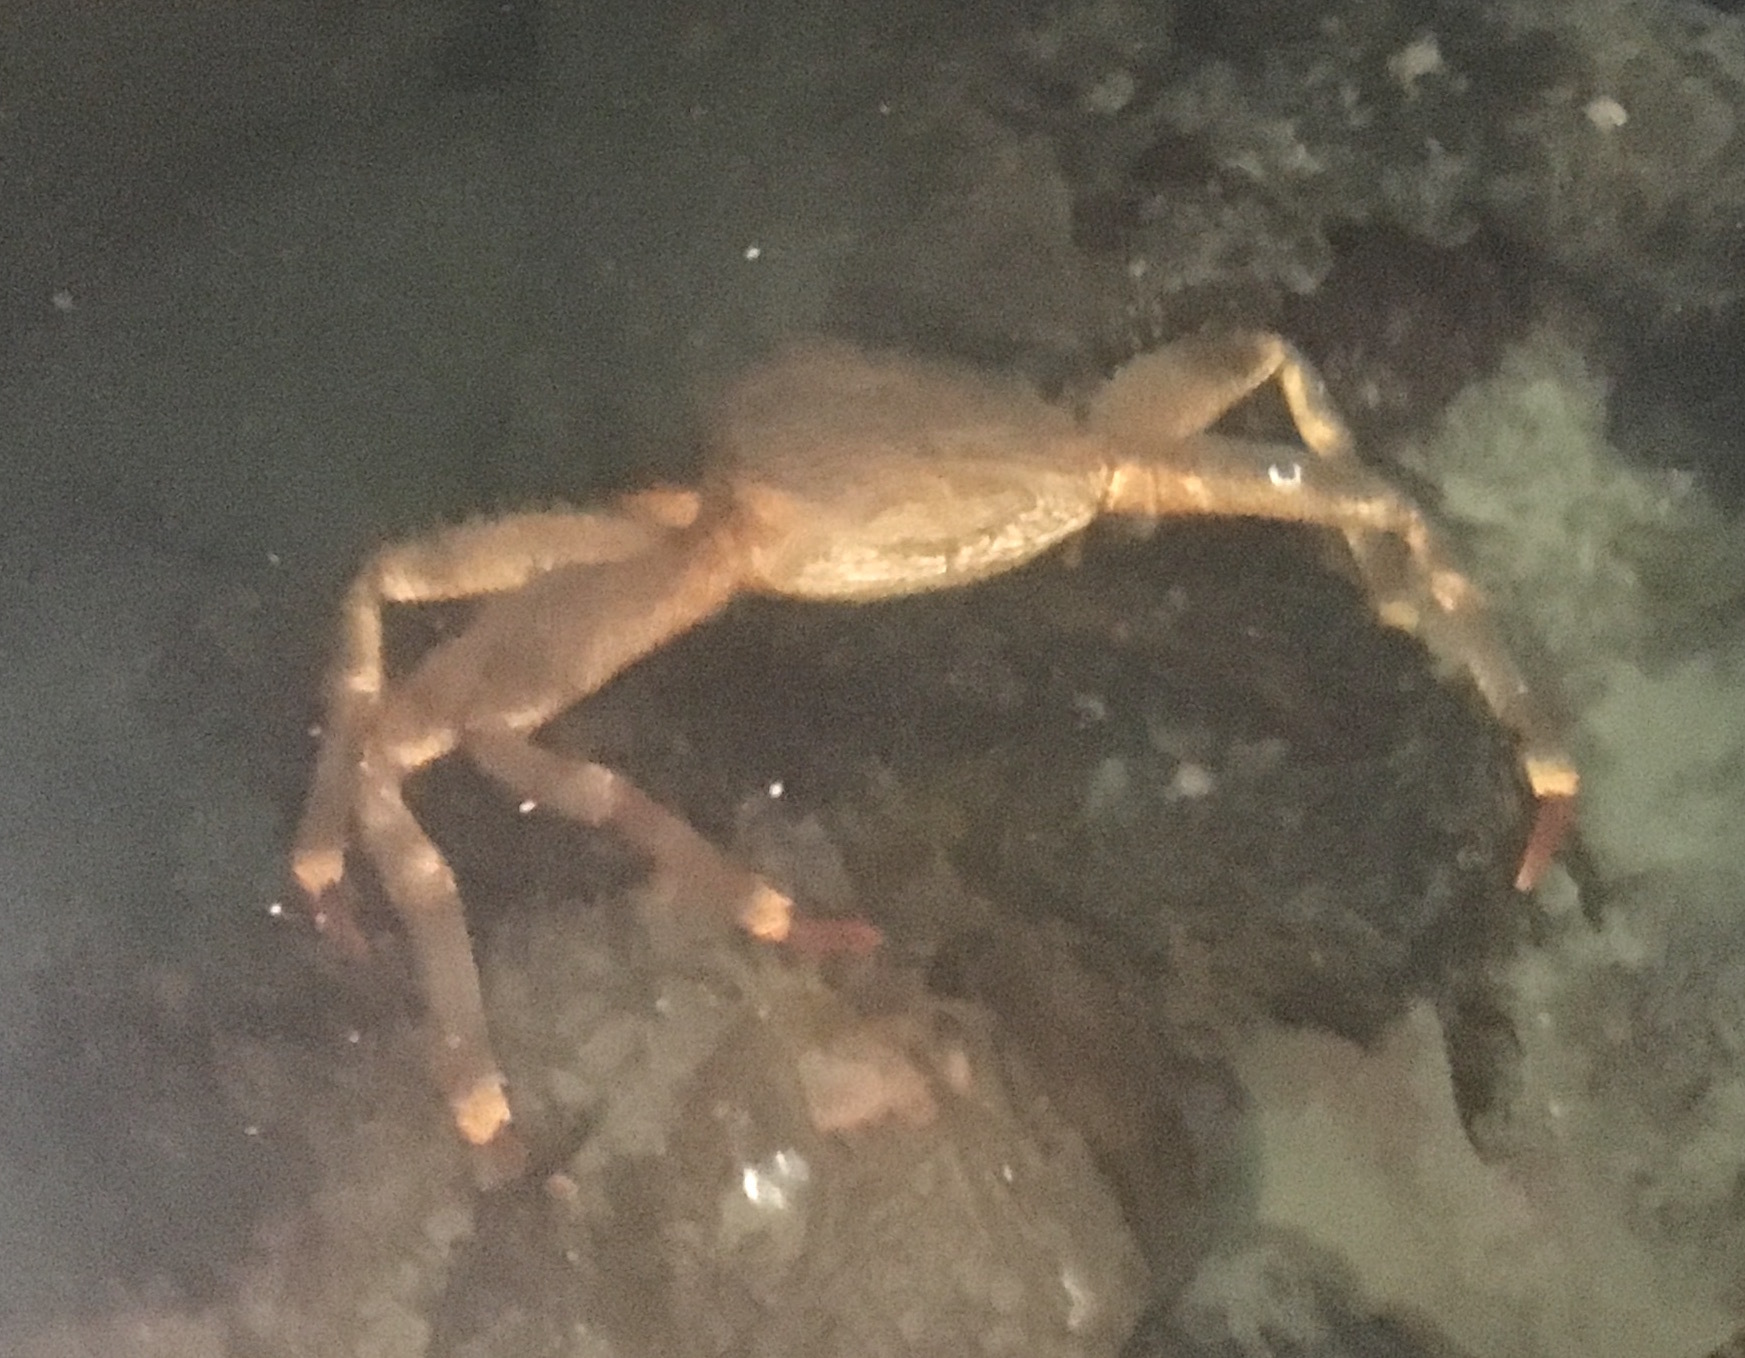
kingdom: Animalia
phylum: Arthropoda
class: Malacostraca
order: Decapoda
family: Hapalogastridae
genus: Placetron
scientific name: Placetron wosnessenskii
